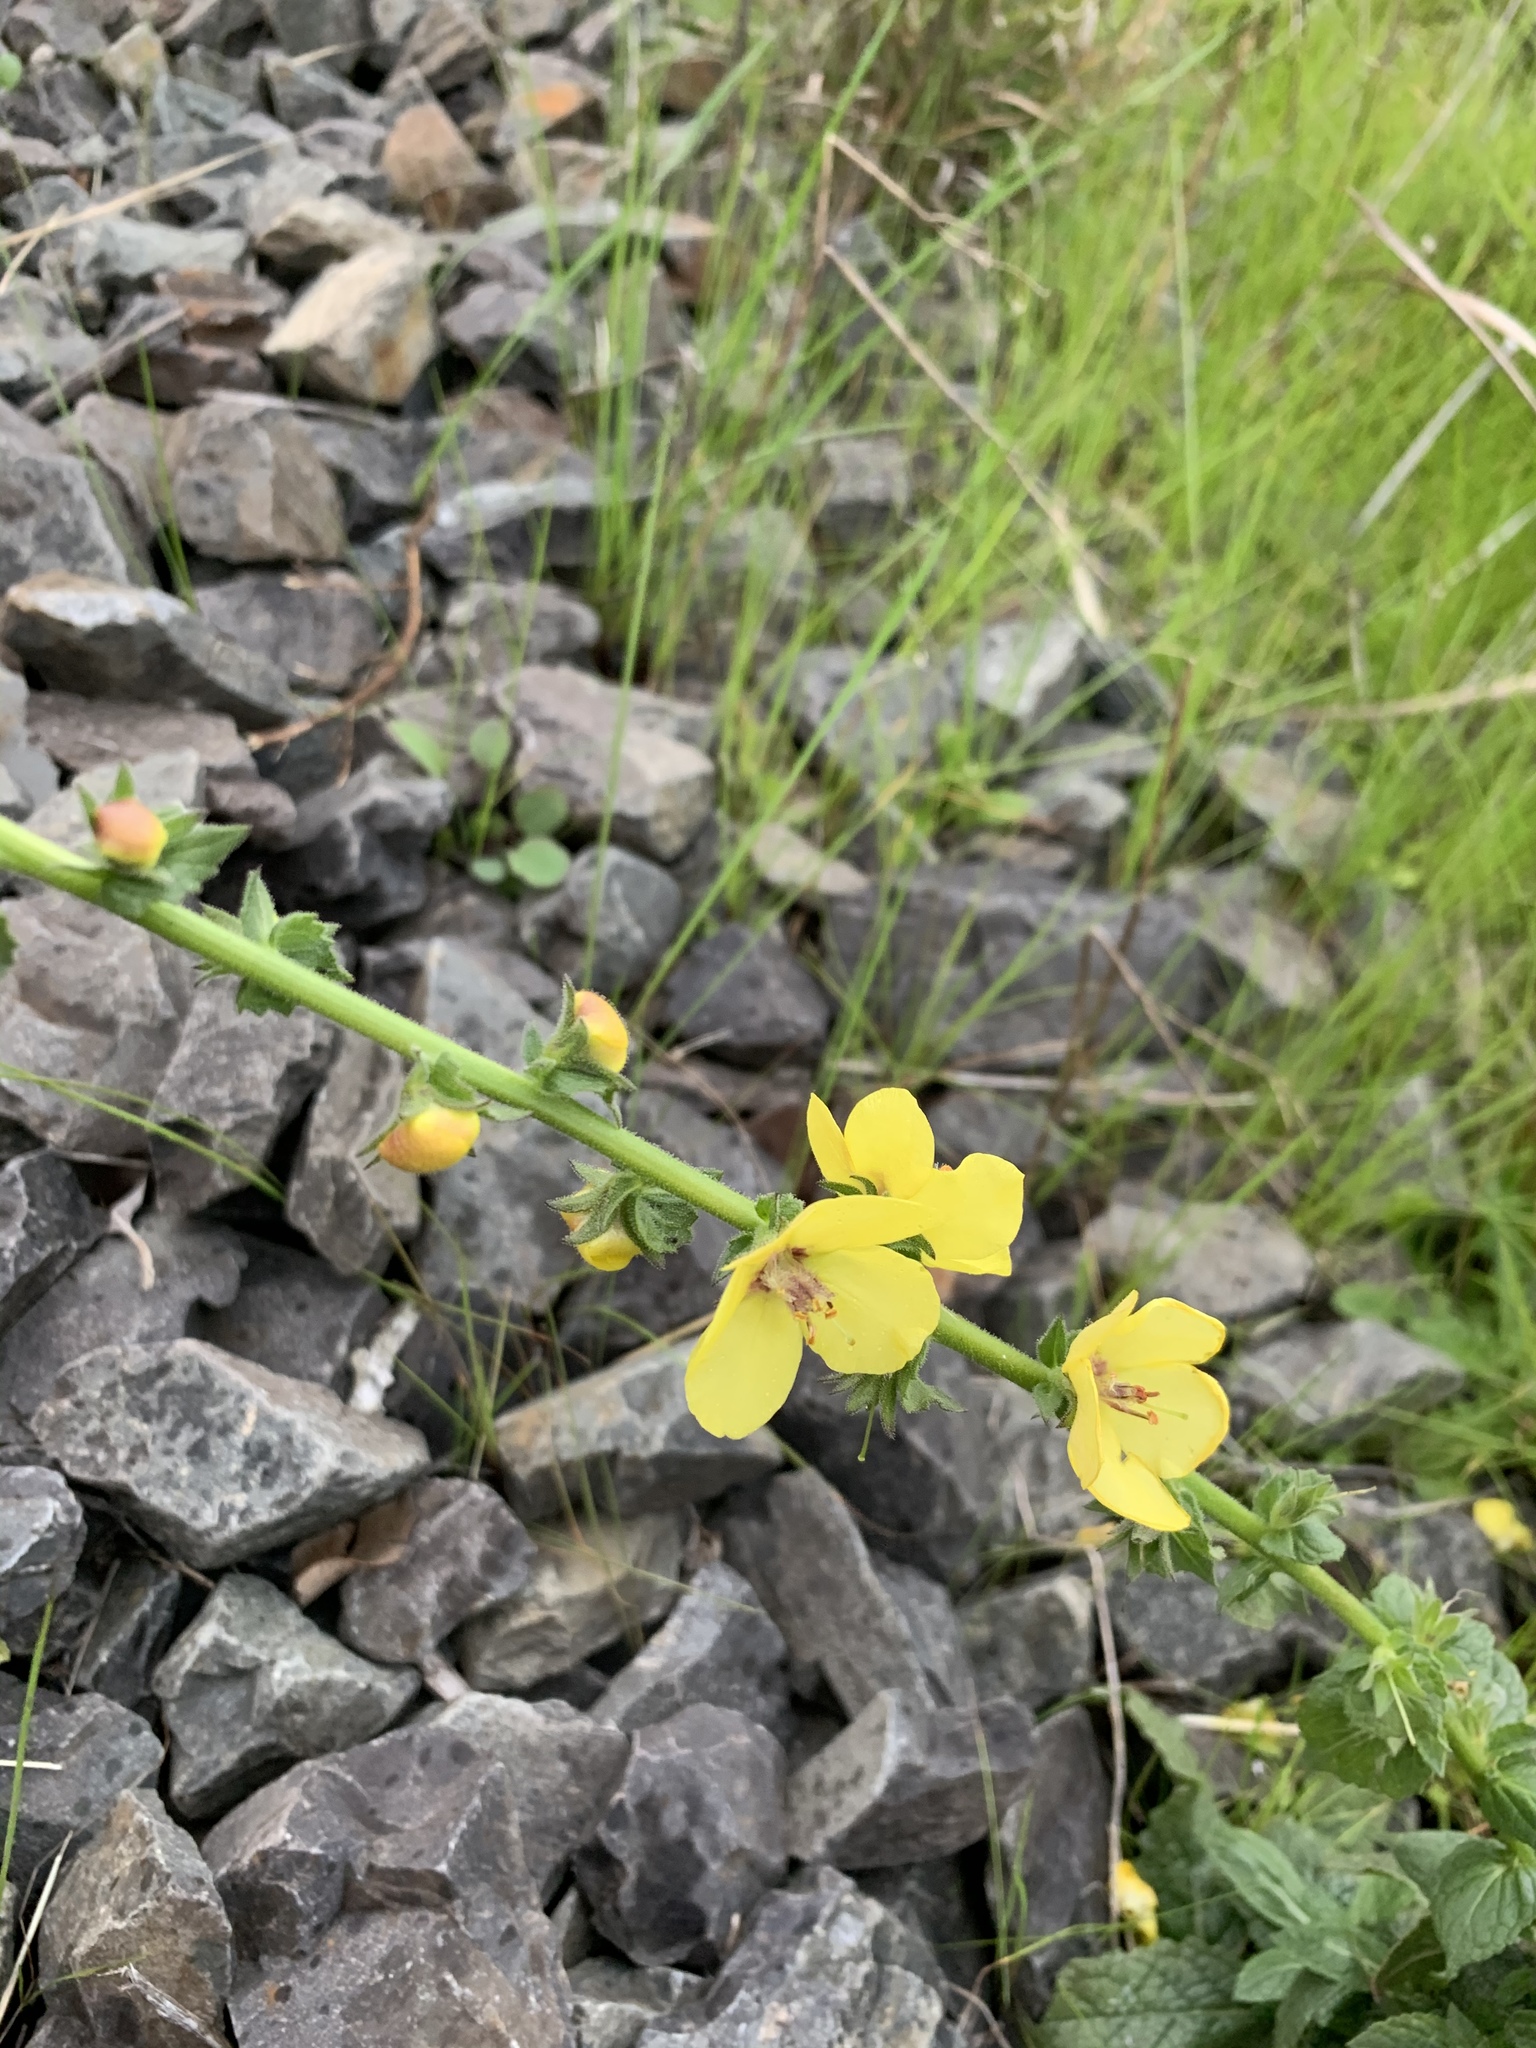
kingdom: Plantae
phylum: Tracheophyta
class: Magnoliopsida
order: Lamiales
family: Scrophulariaceae
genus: Verbascum
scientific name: Verbascum virgatum
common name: Twiggy mullein
